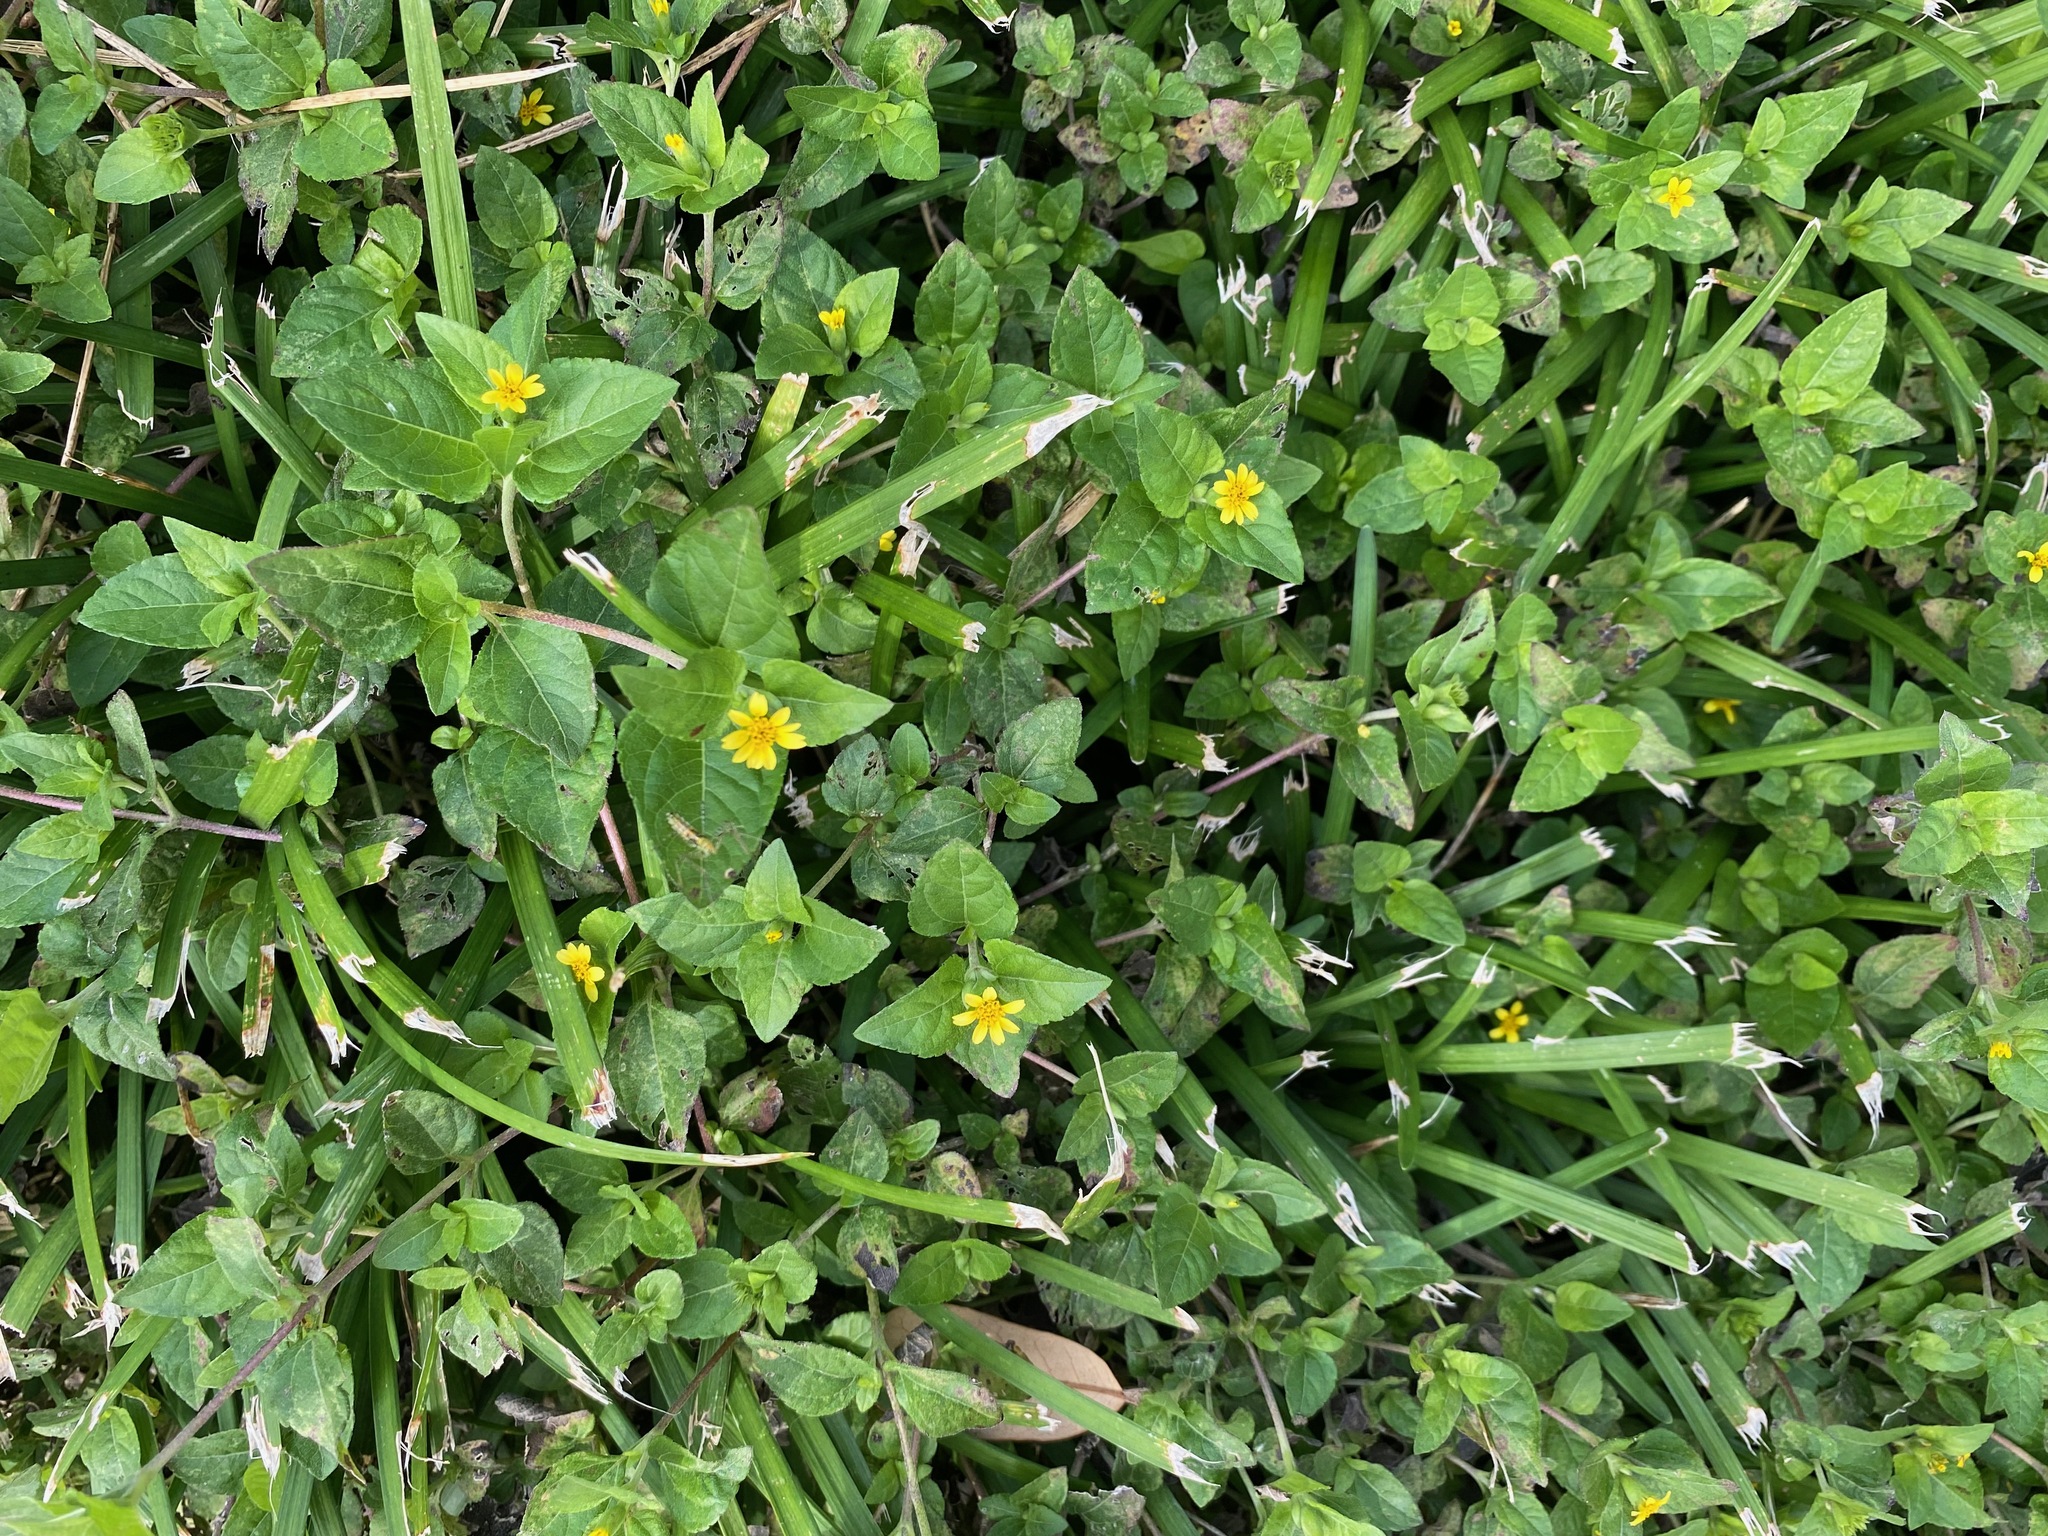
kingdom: Plantae
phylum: Tracheophyta
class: Magnoliopsida
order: Asterales
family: Asteraceae
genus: Calyptocarpus
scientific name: Calyptocarpus vialis
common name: Straggler daisy
